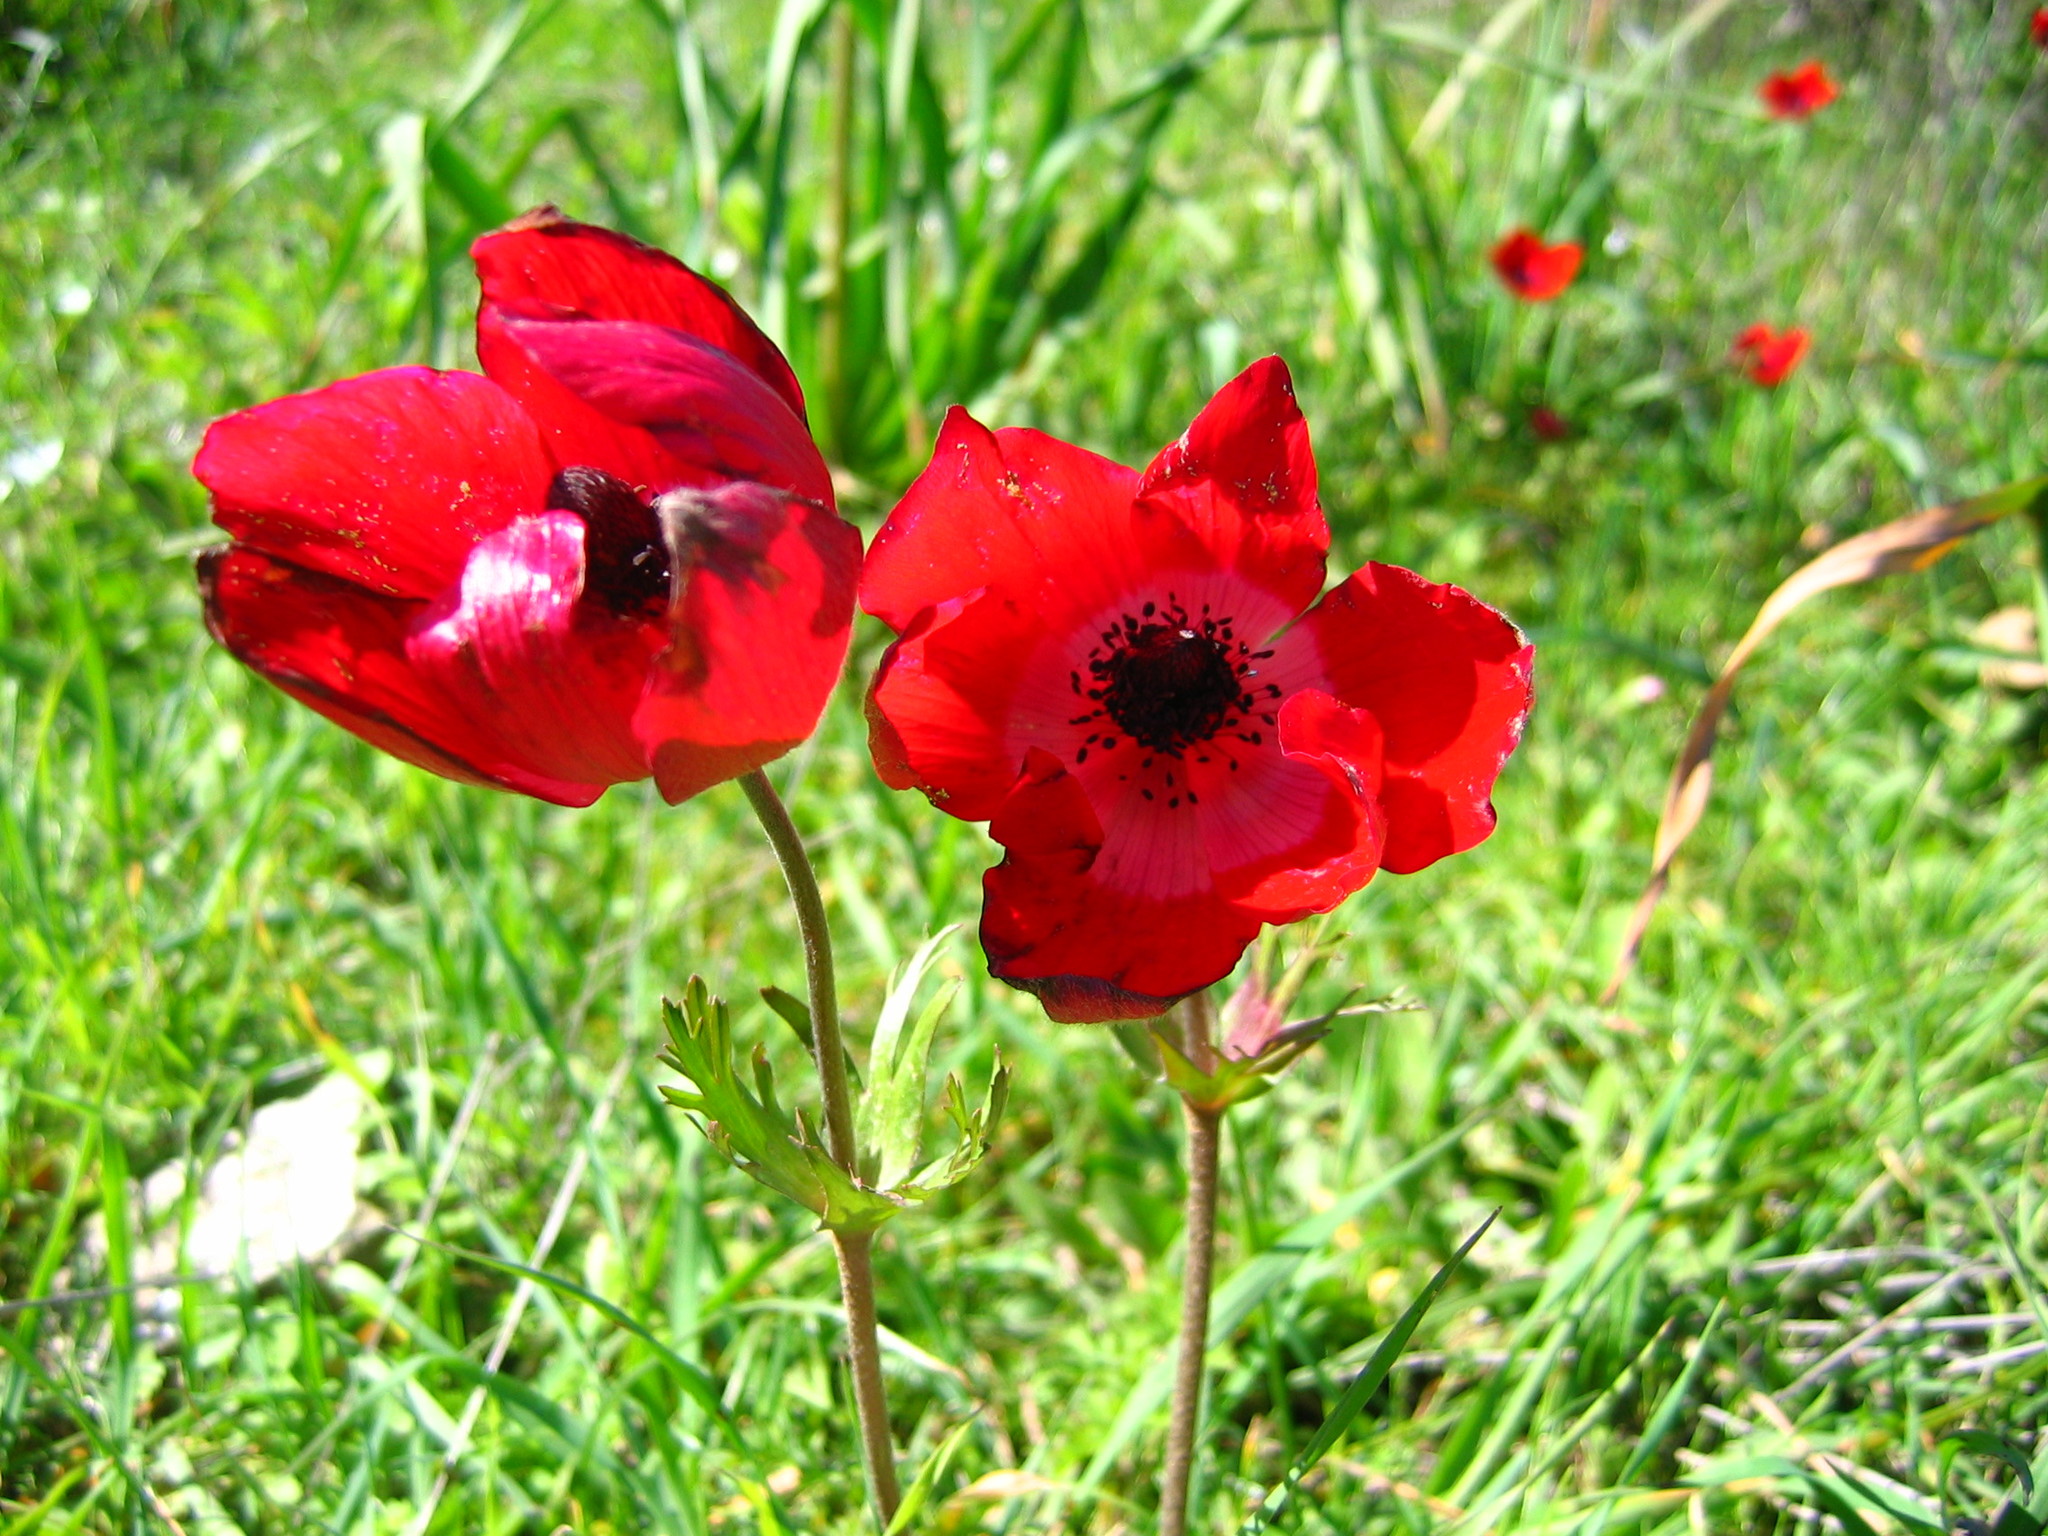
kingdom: Plantae
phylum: Tracheophyta
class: Magnoliopsida
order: Ranunculales
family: Ranunculaceae
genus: Anemone
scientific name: Anemone coronaria
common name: Poppy anemone
